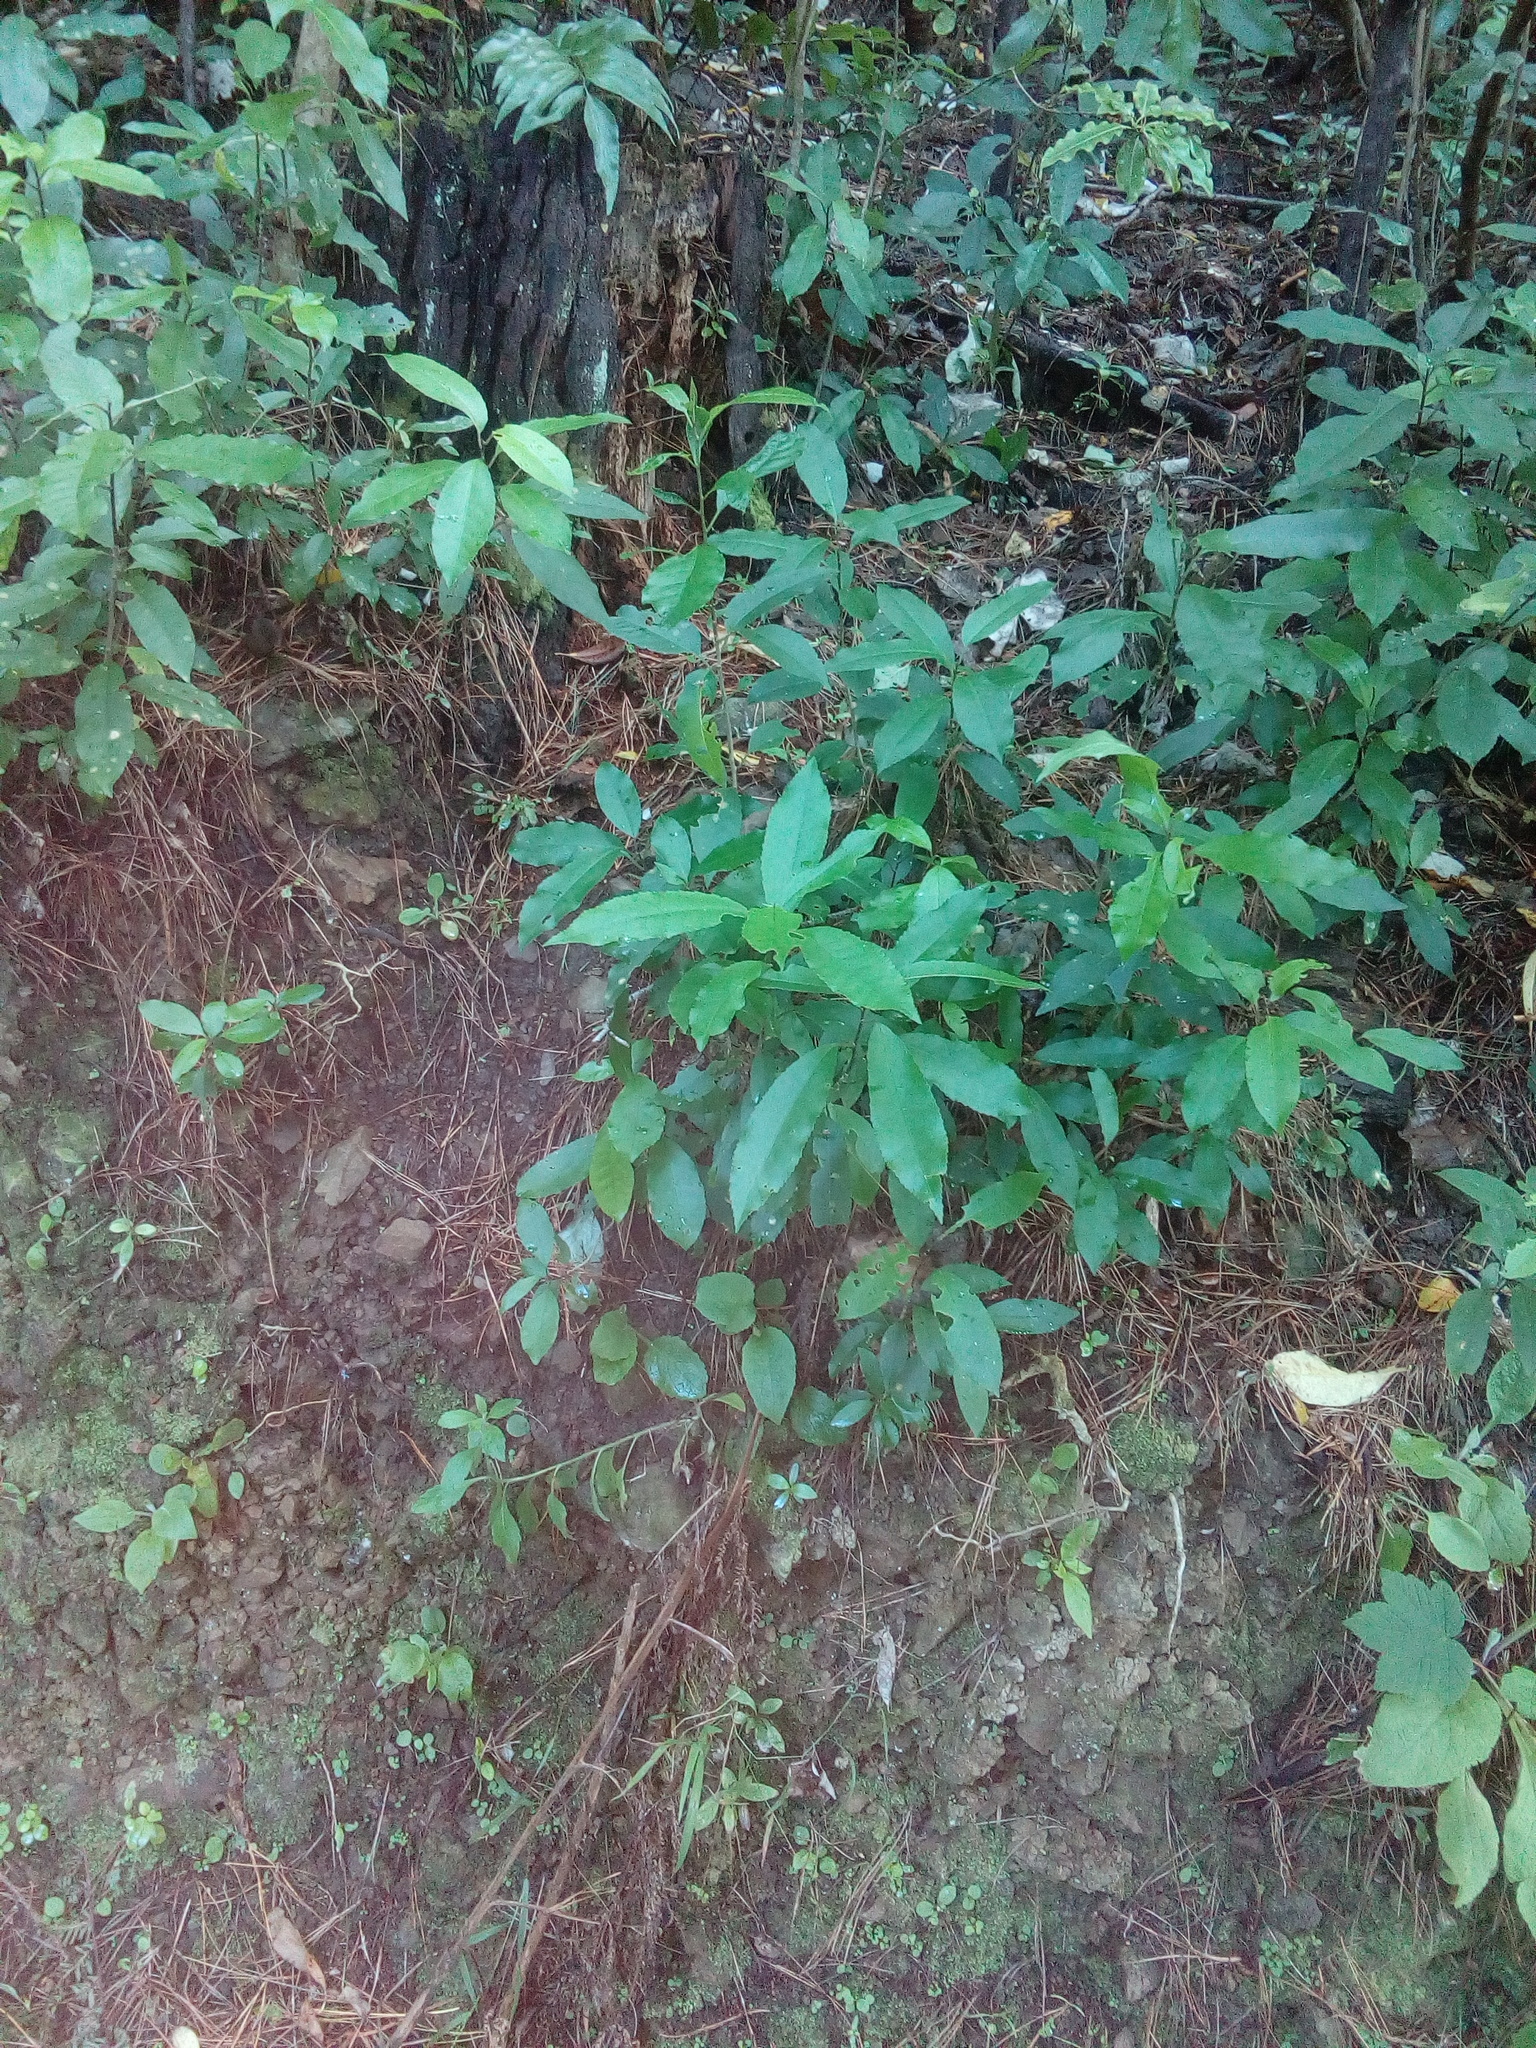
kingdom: Plantae
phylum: Tracheophyta
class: Magnoliopsida
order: Malpighiales
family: Violaceae
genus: Melicytus
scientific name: Melicytus ramiflorus
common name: Mahoe
